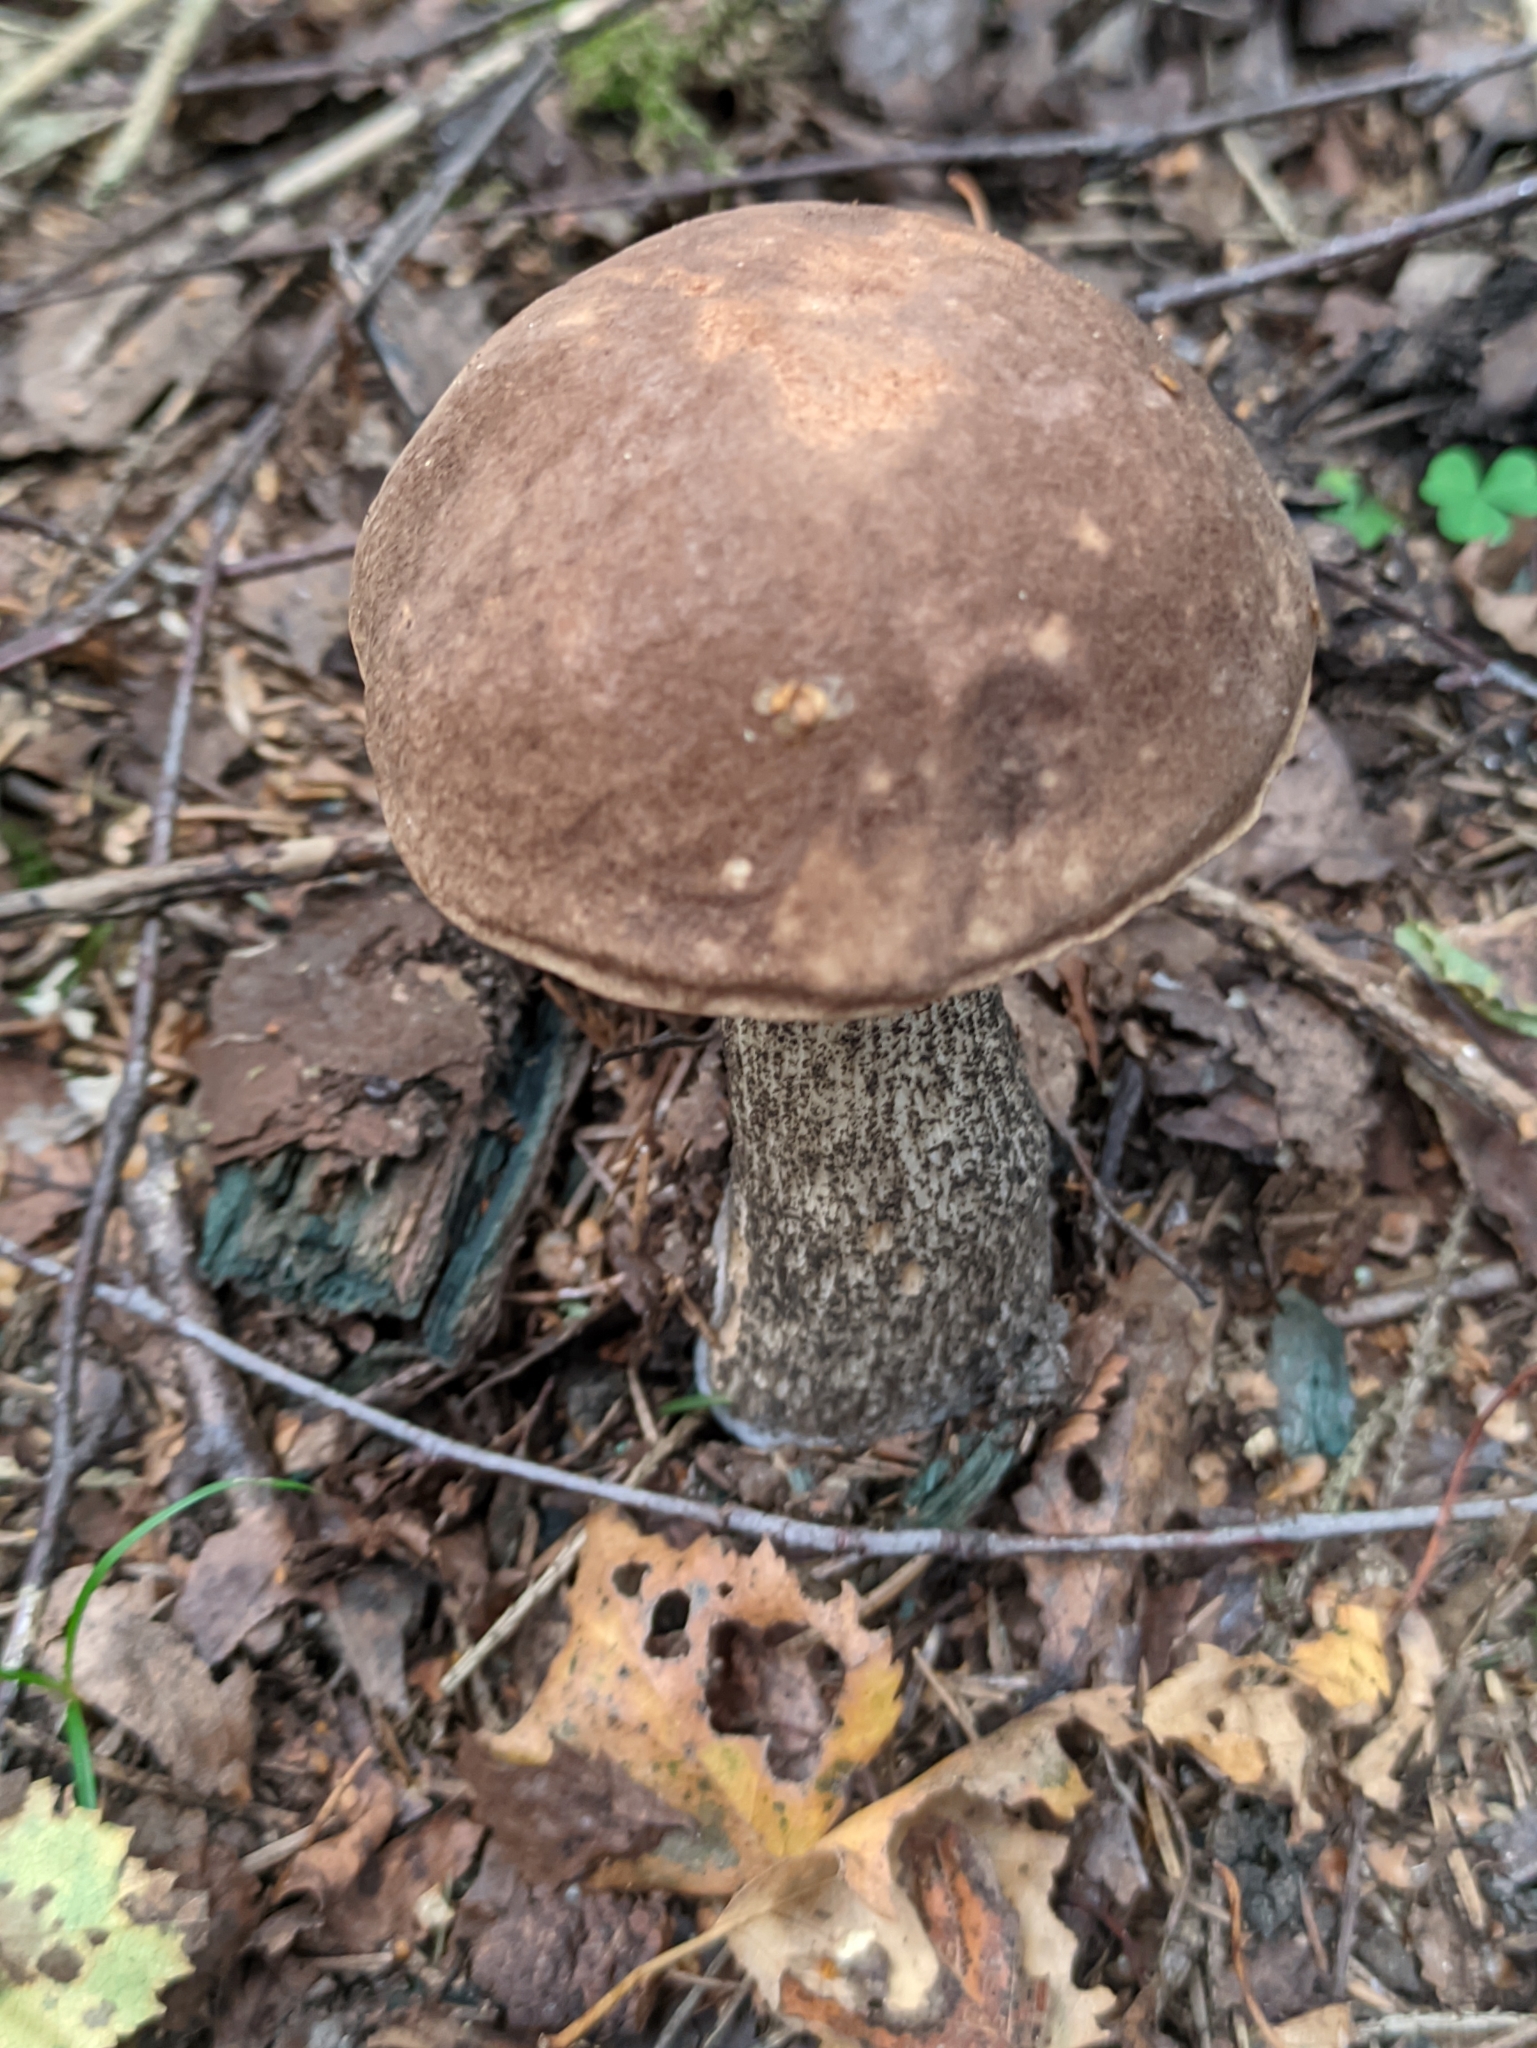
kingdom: Fungi
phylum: Basidiomycota
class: Agaricomycetes
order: Boletales
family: Boletaceae
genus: Leccinum
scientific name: Leccinum scabrum
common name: Blushing bolete
